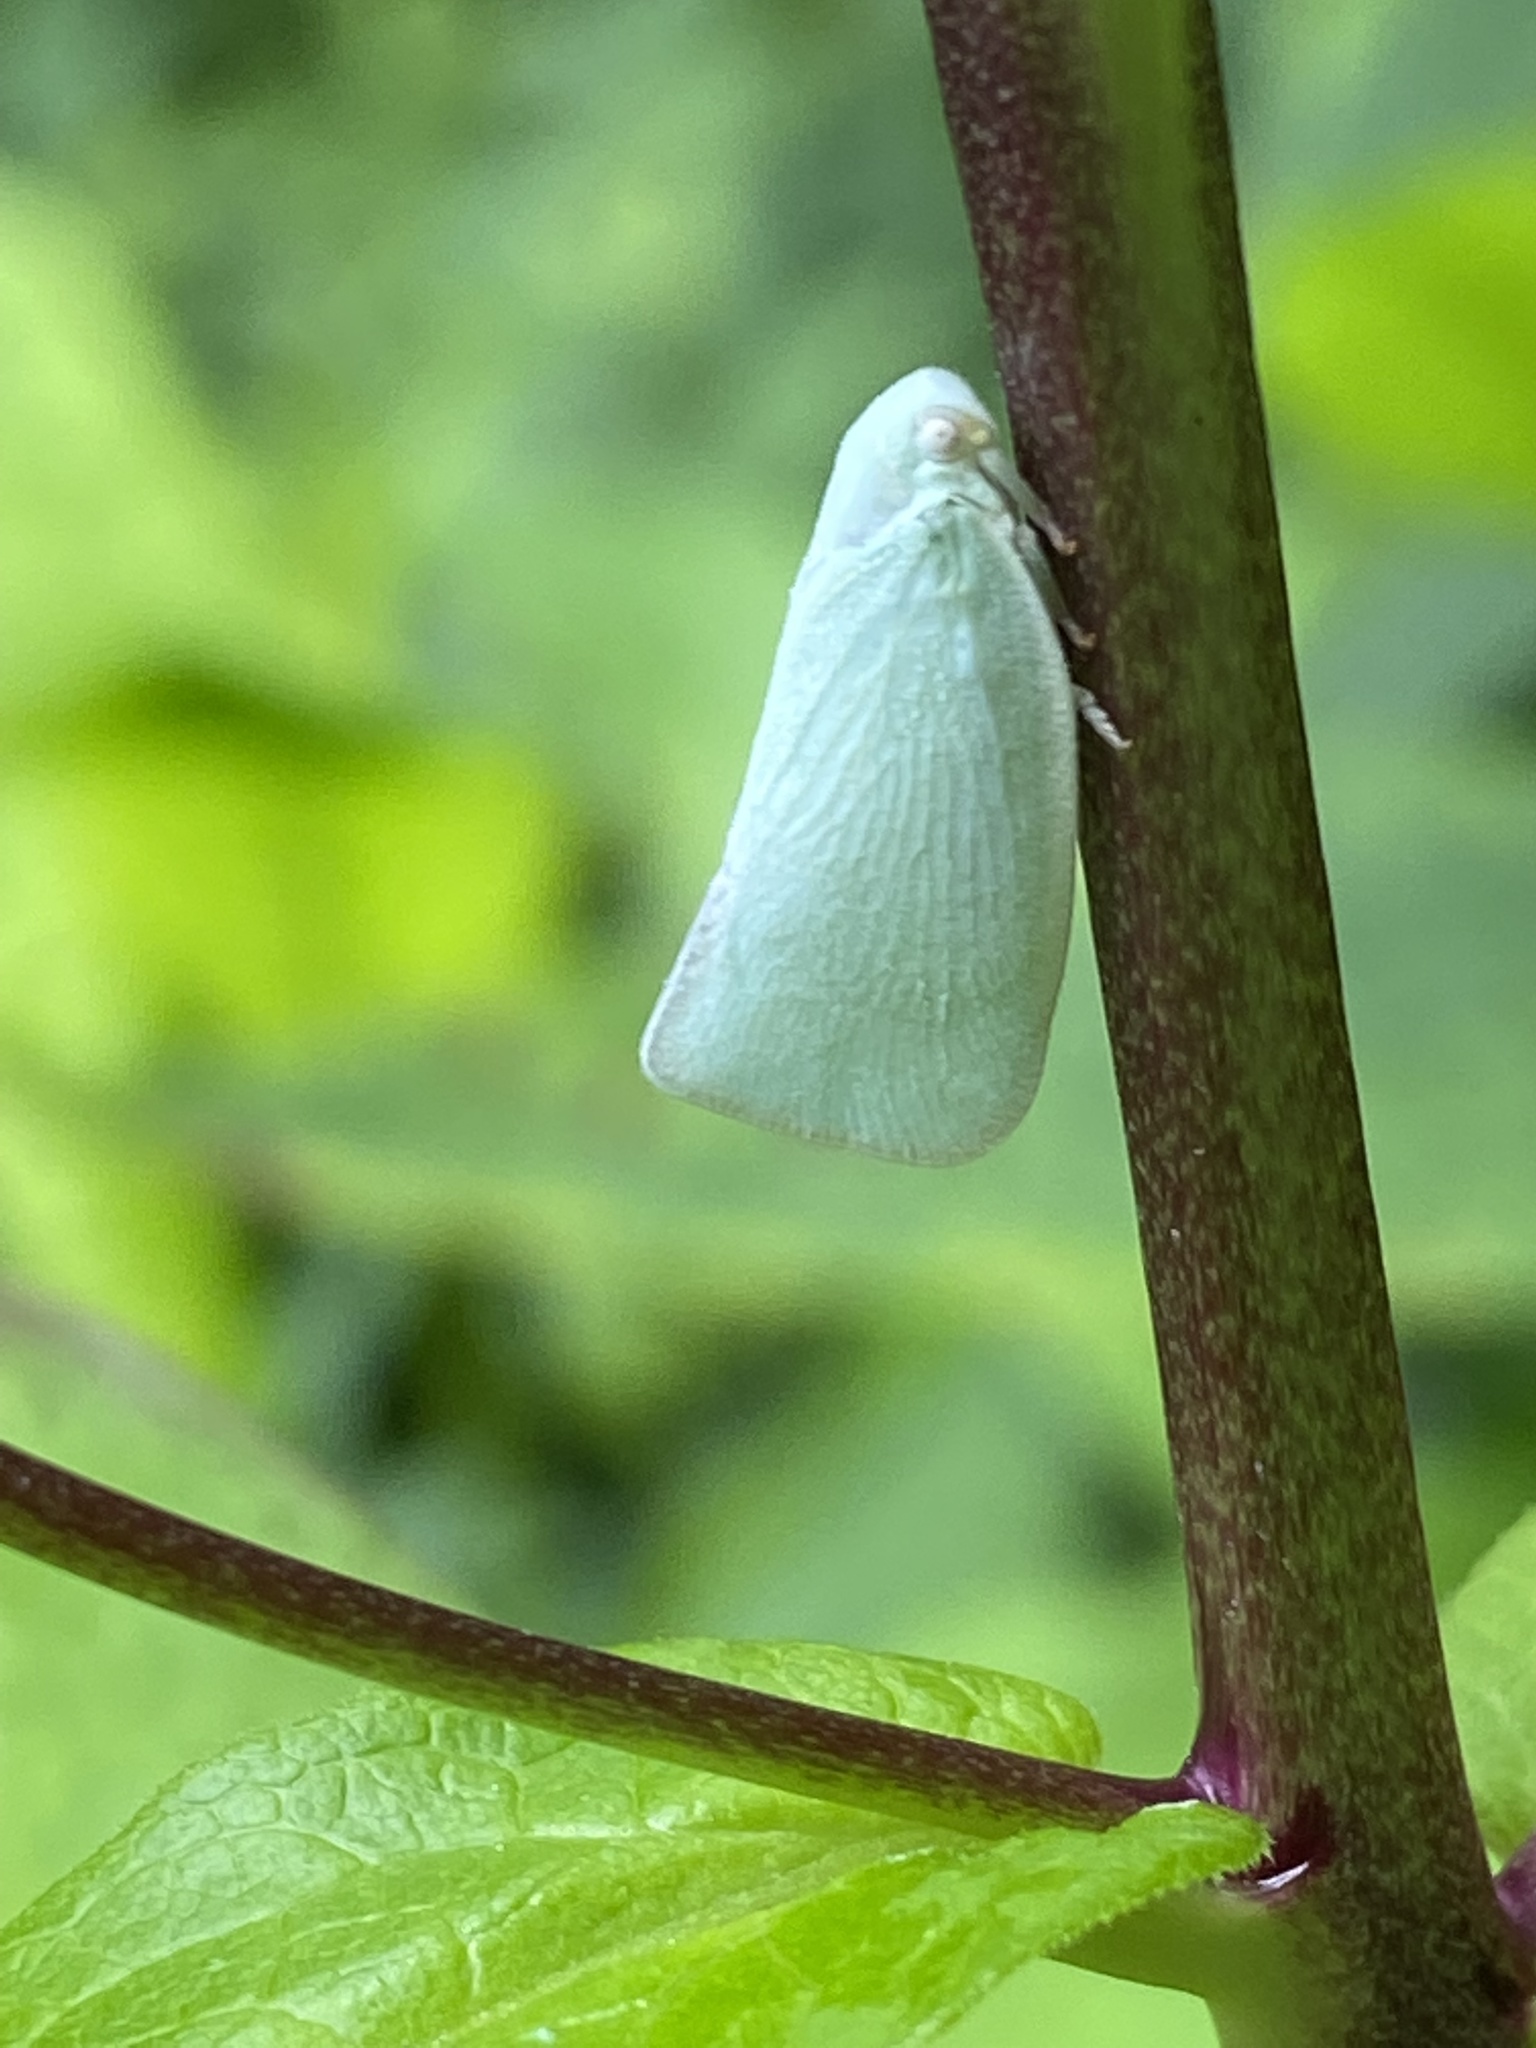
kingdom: Animalia
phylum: Arthropoda
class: Insecta
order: Hemiptera
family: Flatidae
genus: Flatormenis
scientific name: Flatormenis proxima
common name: Northern flatid planthopper
